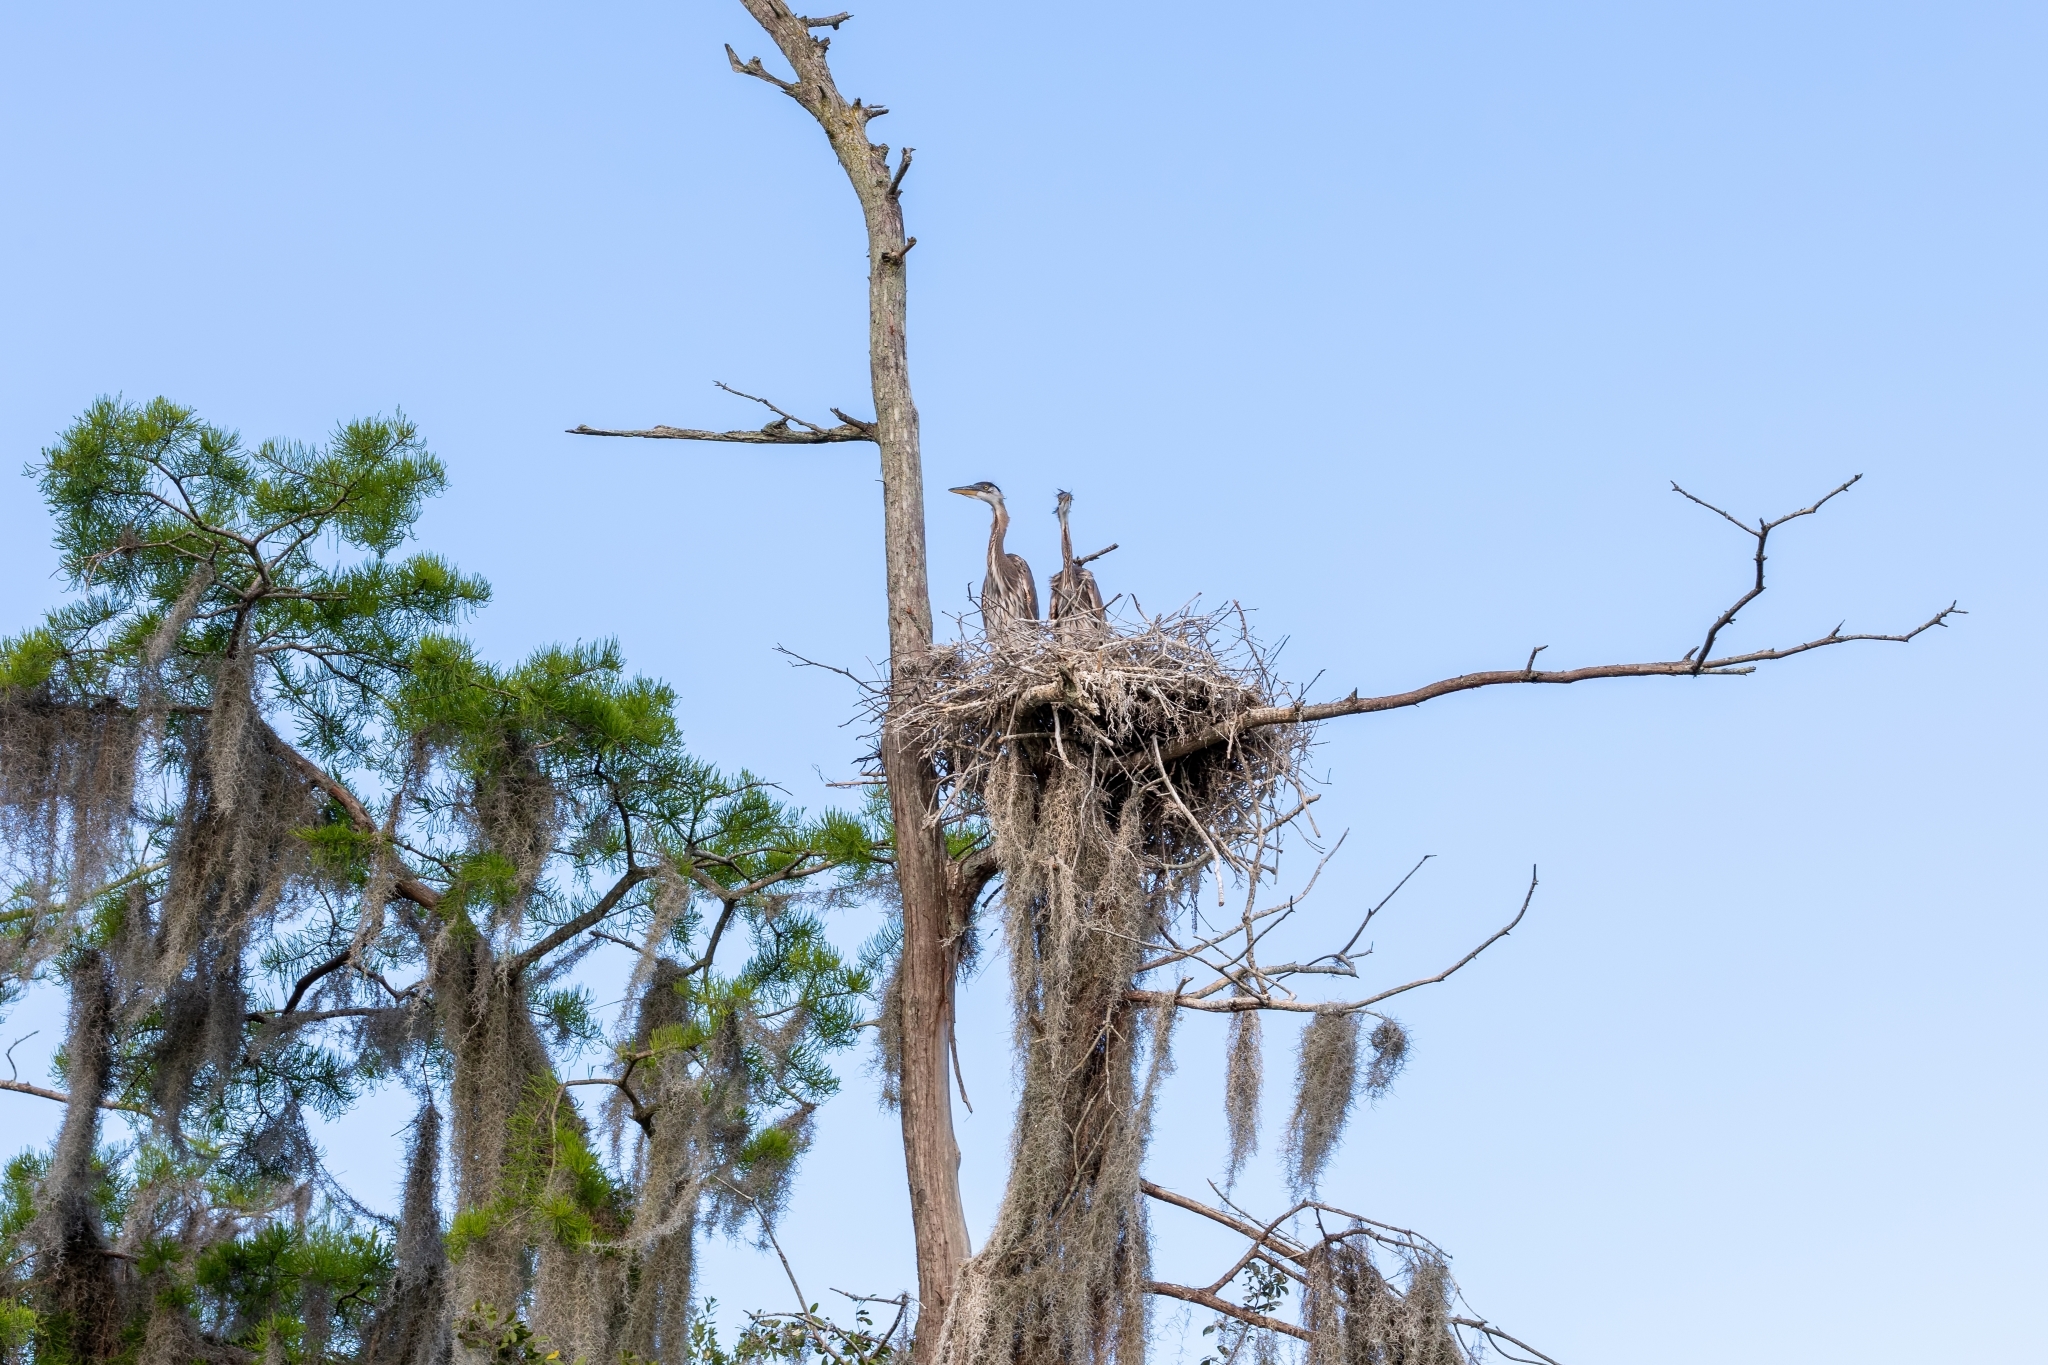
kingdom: Animalia
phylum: Chordata
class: Aves
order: Pelecaniformes
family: Ardeidae
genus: Ardea
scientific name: Ardea herodias
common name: Great blue heron
